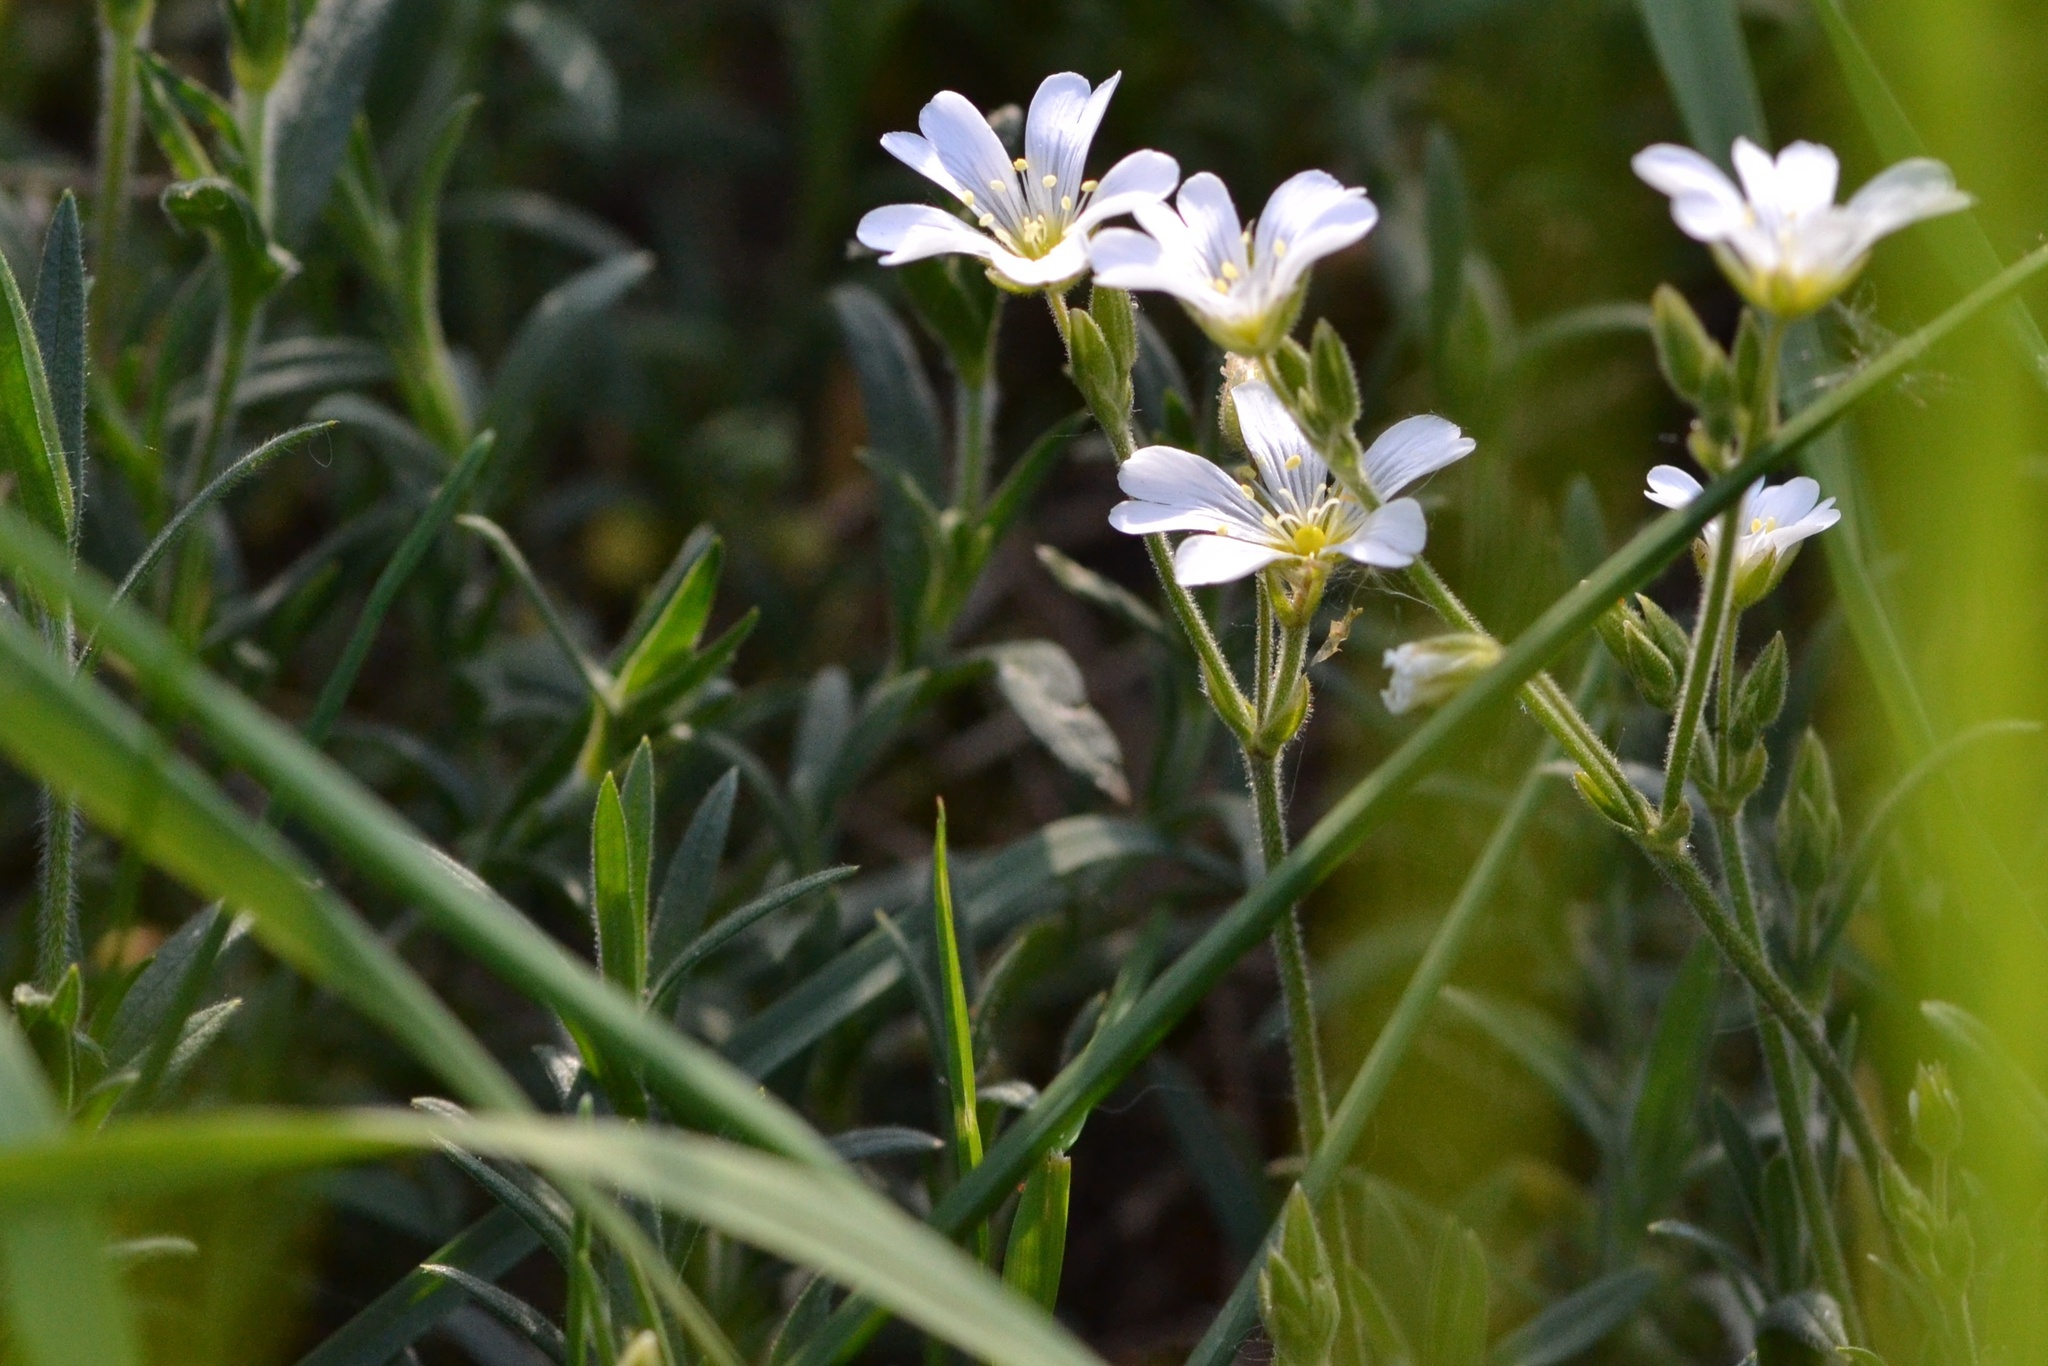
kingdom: Plantae
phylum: Tracheophyta
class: Magnoliopsida
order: Caryophyllales
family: Caryophyllaceae
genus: Cerastium
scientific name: Cerastium arvense
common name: Field mouse-ear
